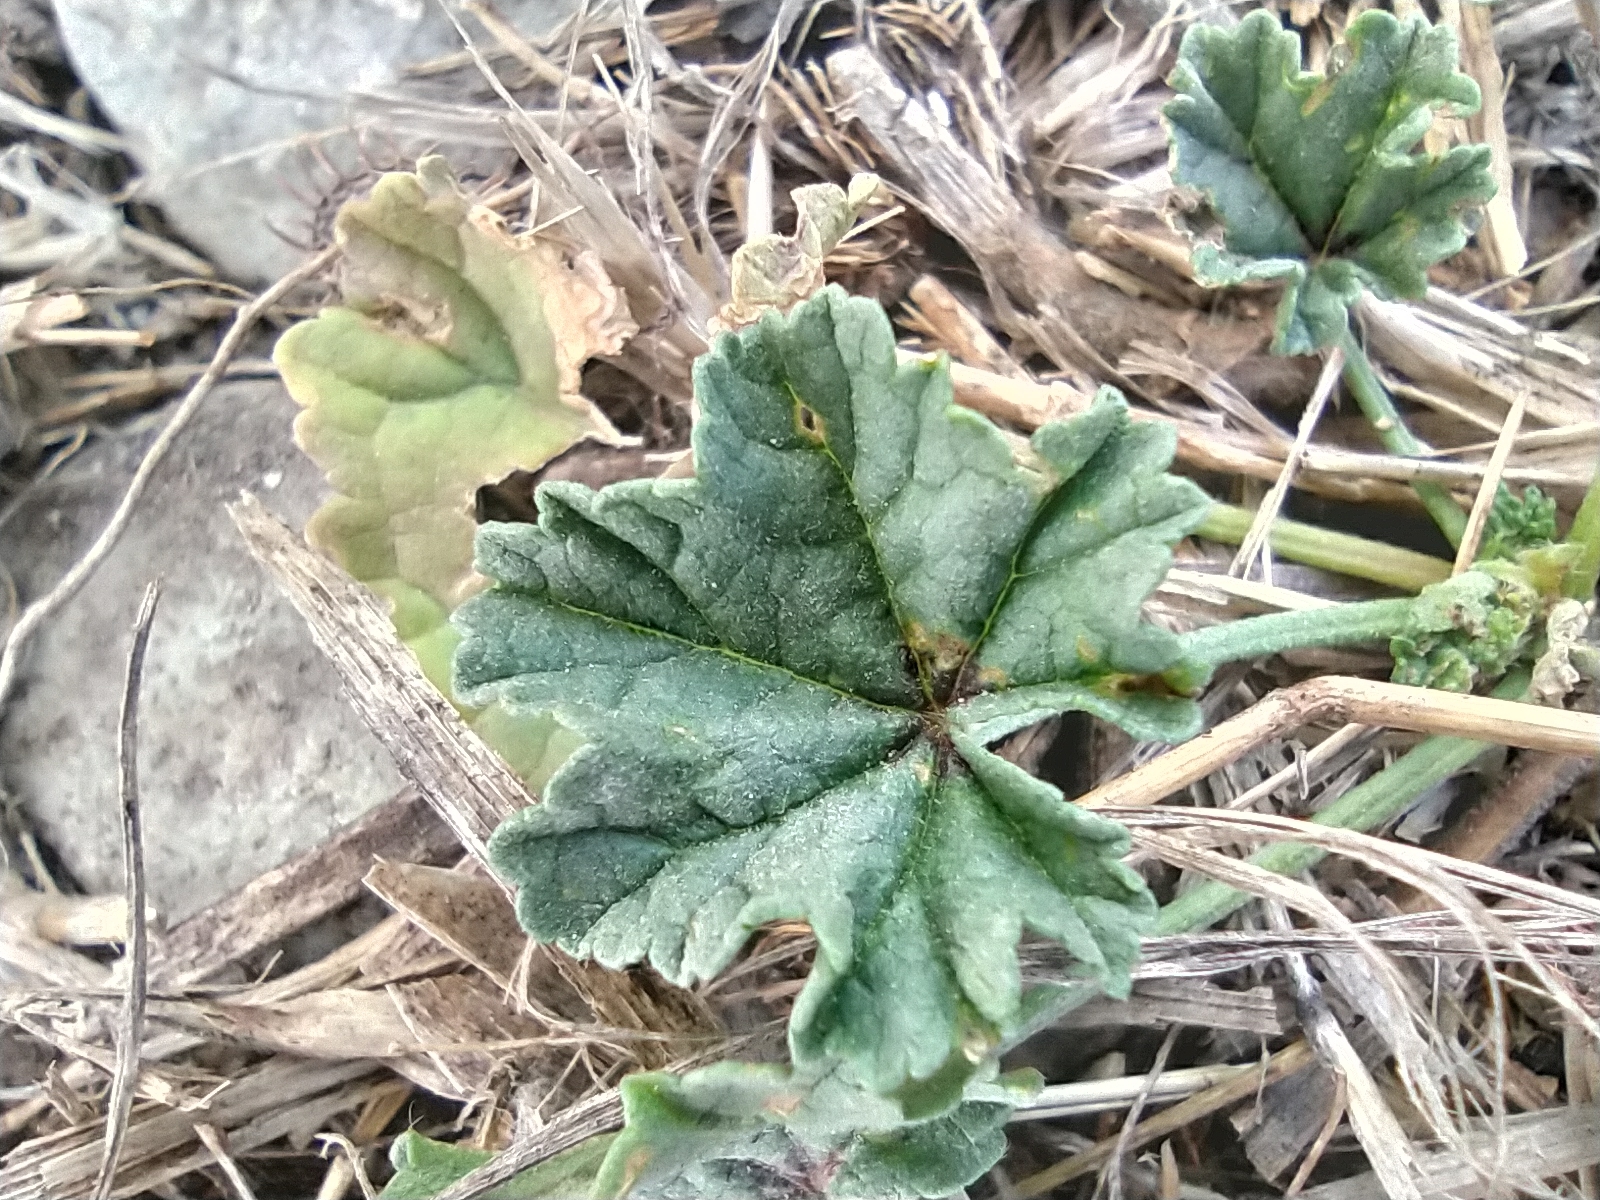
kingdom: Plantae
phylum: Tracheophyta
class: Magnoliopsida
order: Malvales
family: Malvaceae
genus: Malva
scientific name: Malva sylvestris
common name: Common mallow
